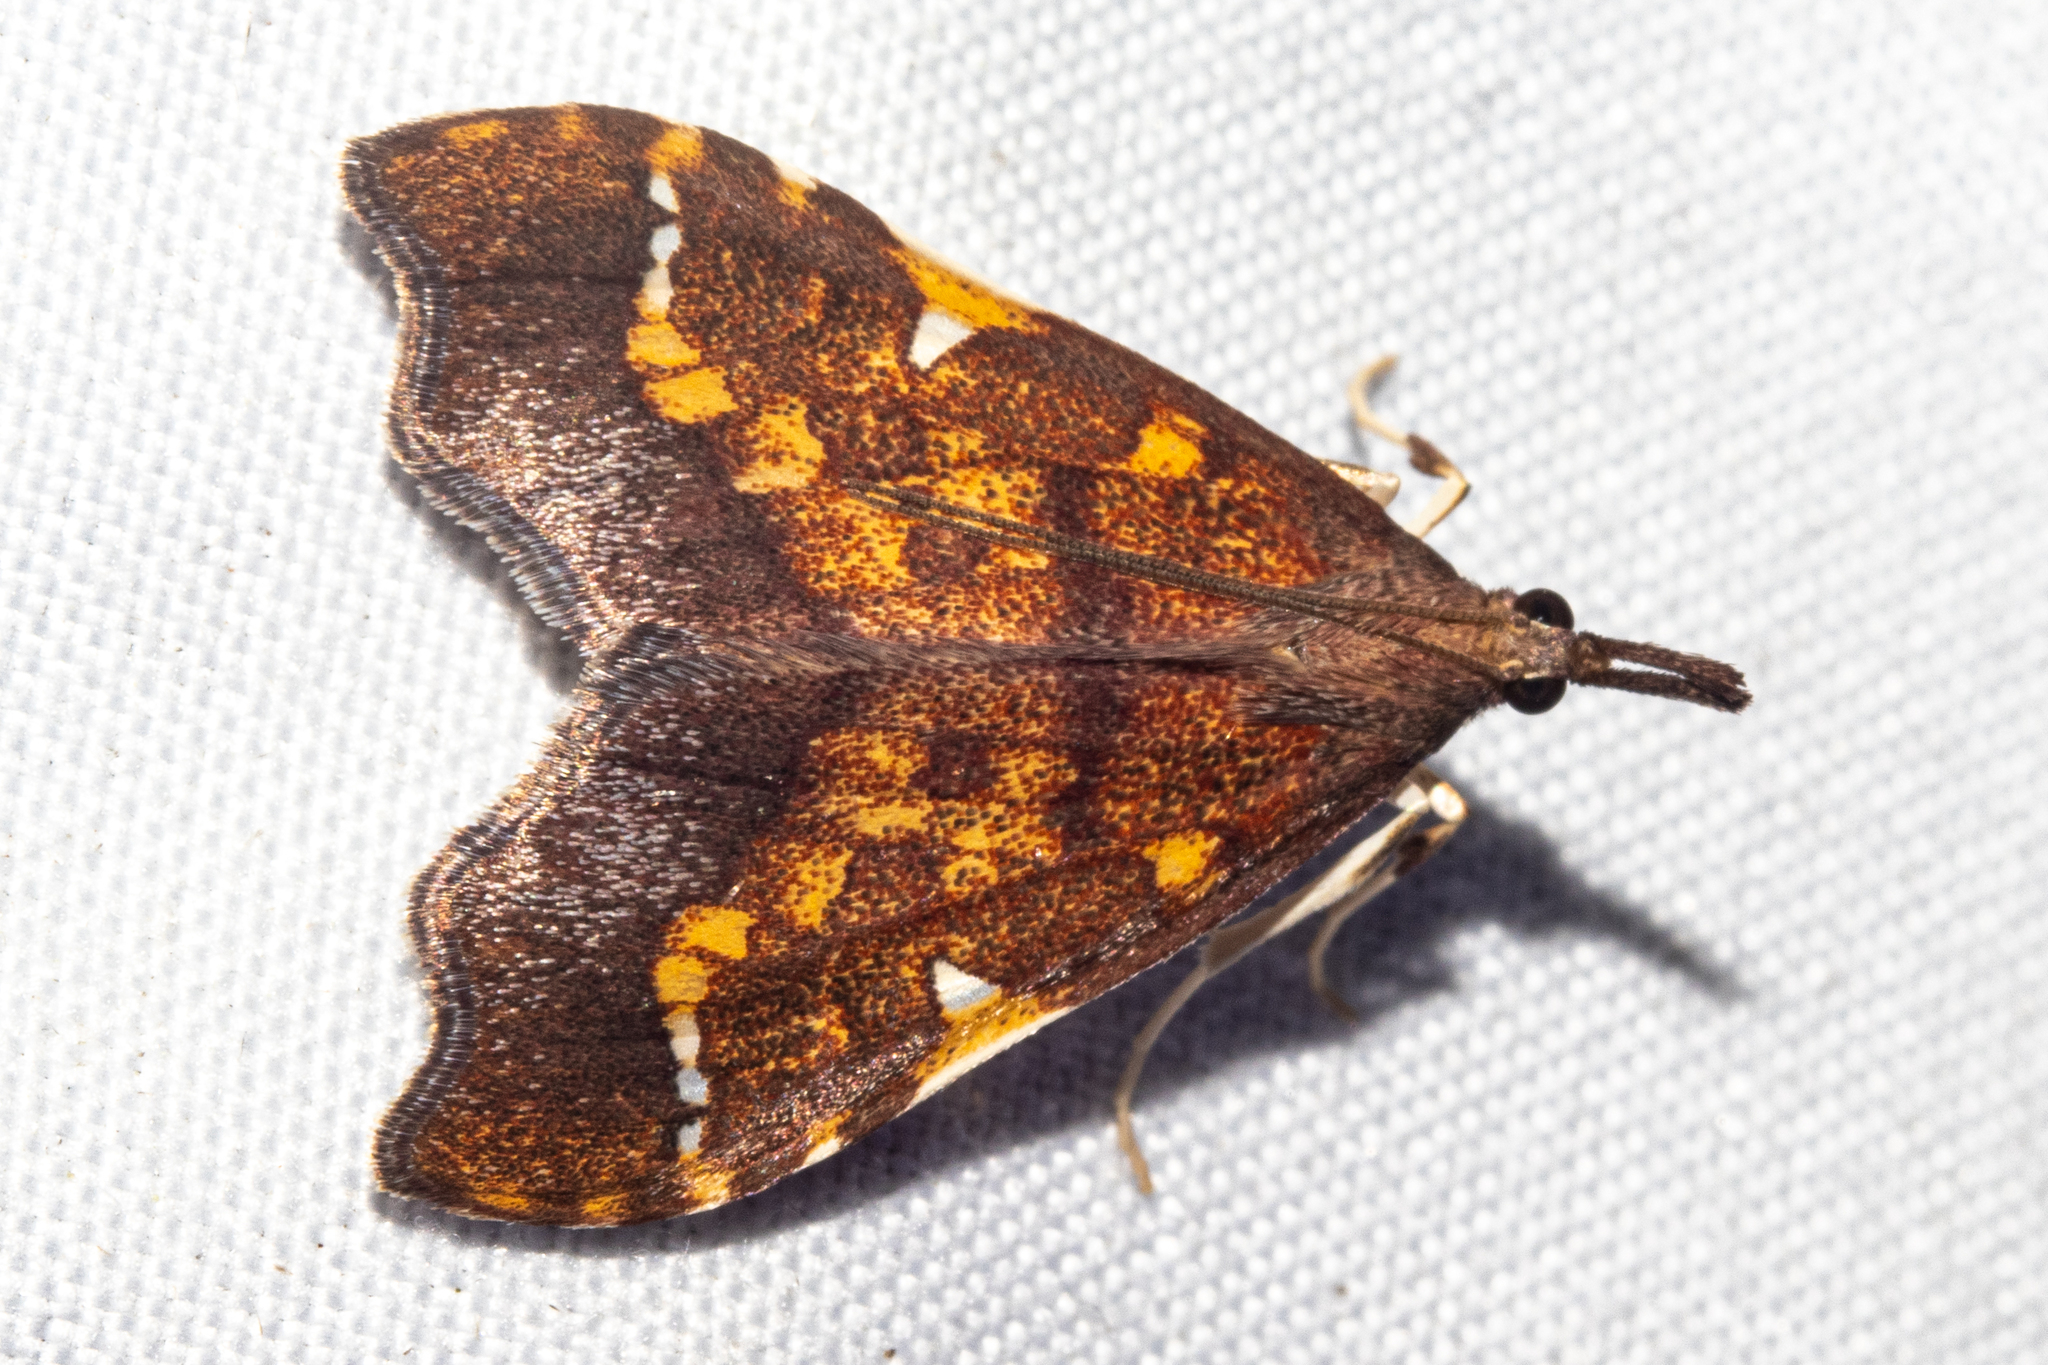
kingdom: Animalia
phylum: Arthropoda
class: Insecta
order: Lepidoptera
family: Crambidae
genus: Deana
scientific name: Deana hybreasalis
